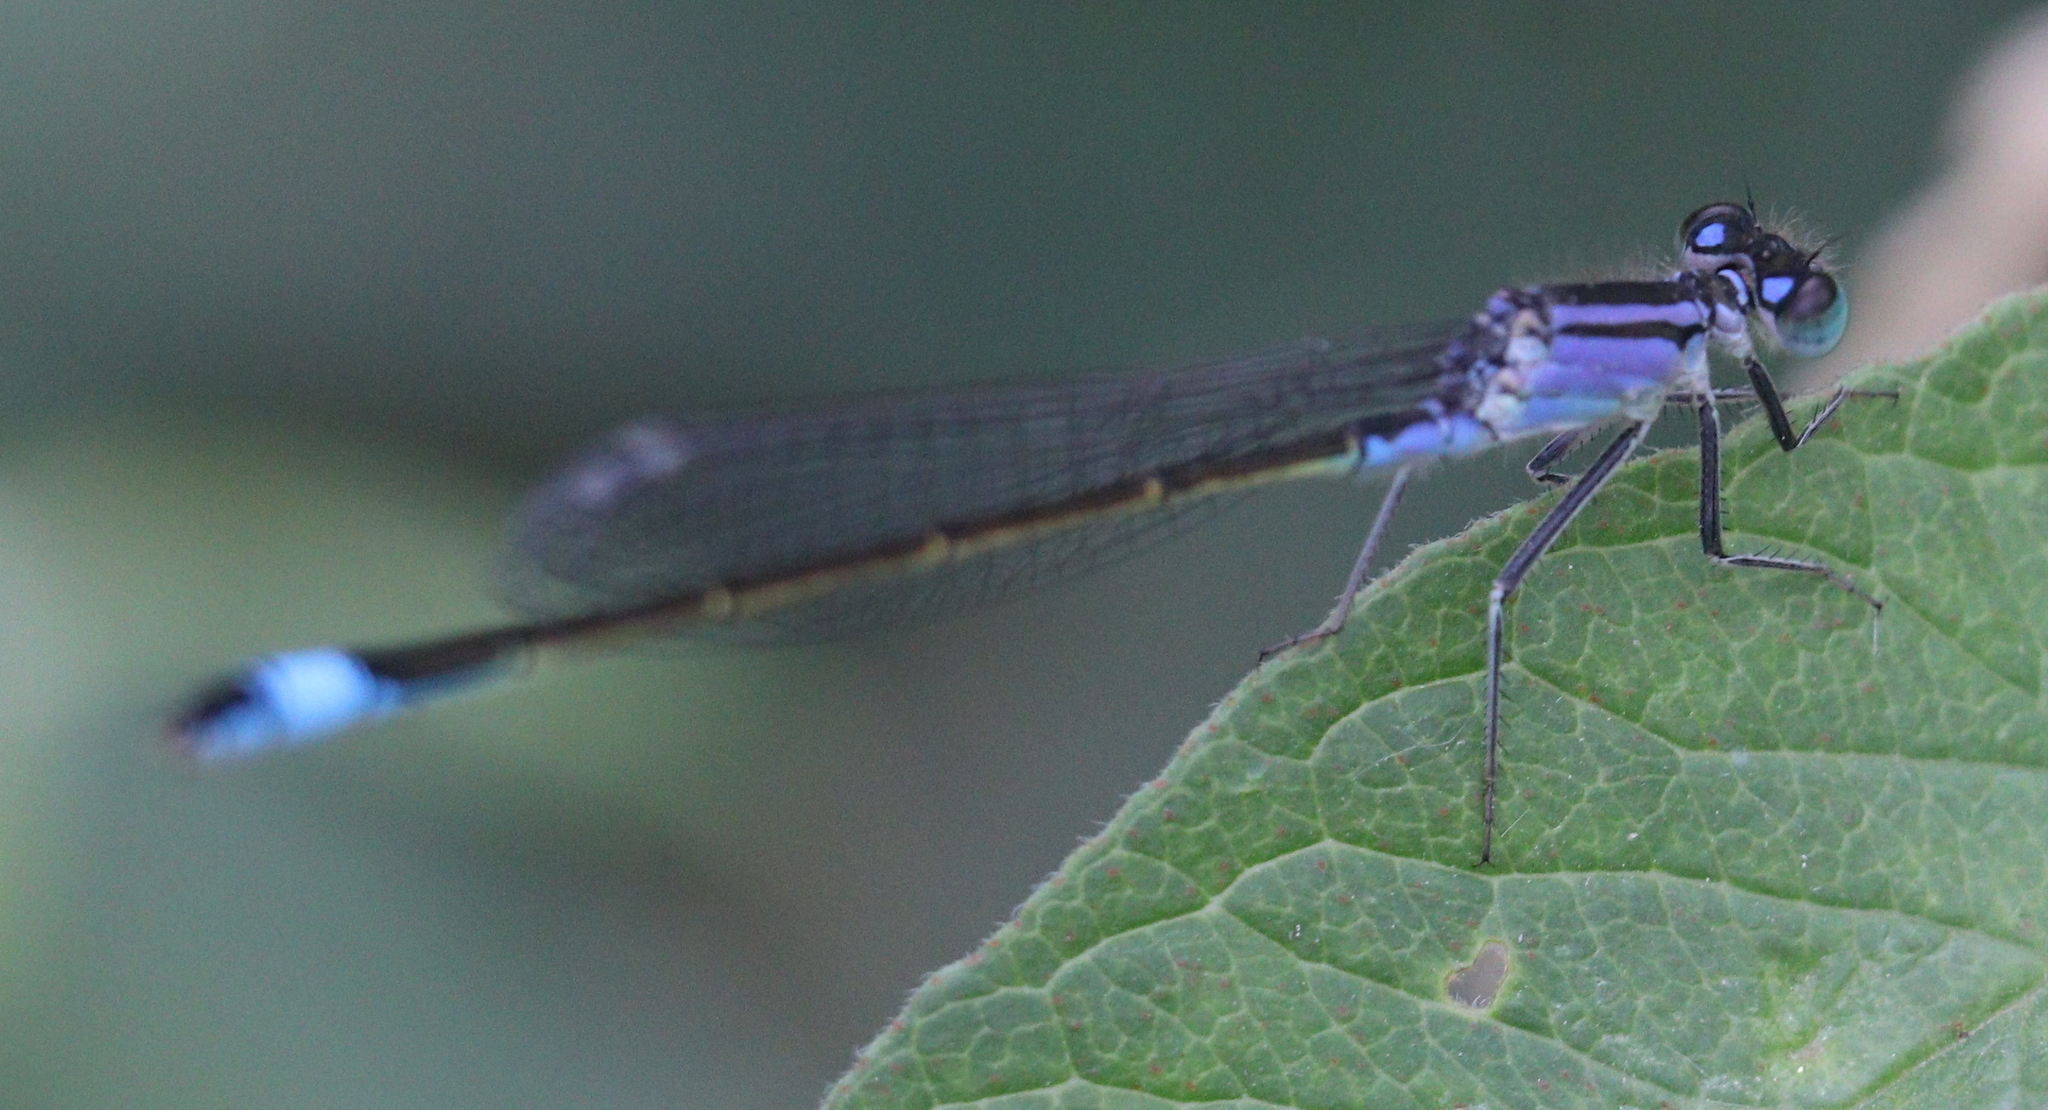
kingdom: Animalia
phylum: Arthropoda
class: Insecta
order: Odonata
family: Coenagrionidae
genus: Ischnura
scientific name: Ischnura elegans
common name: Blue-tailed damselfly
